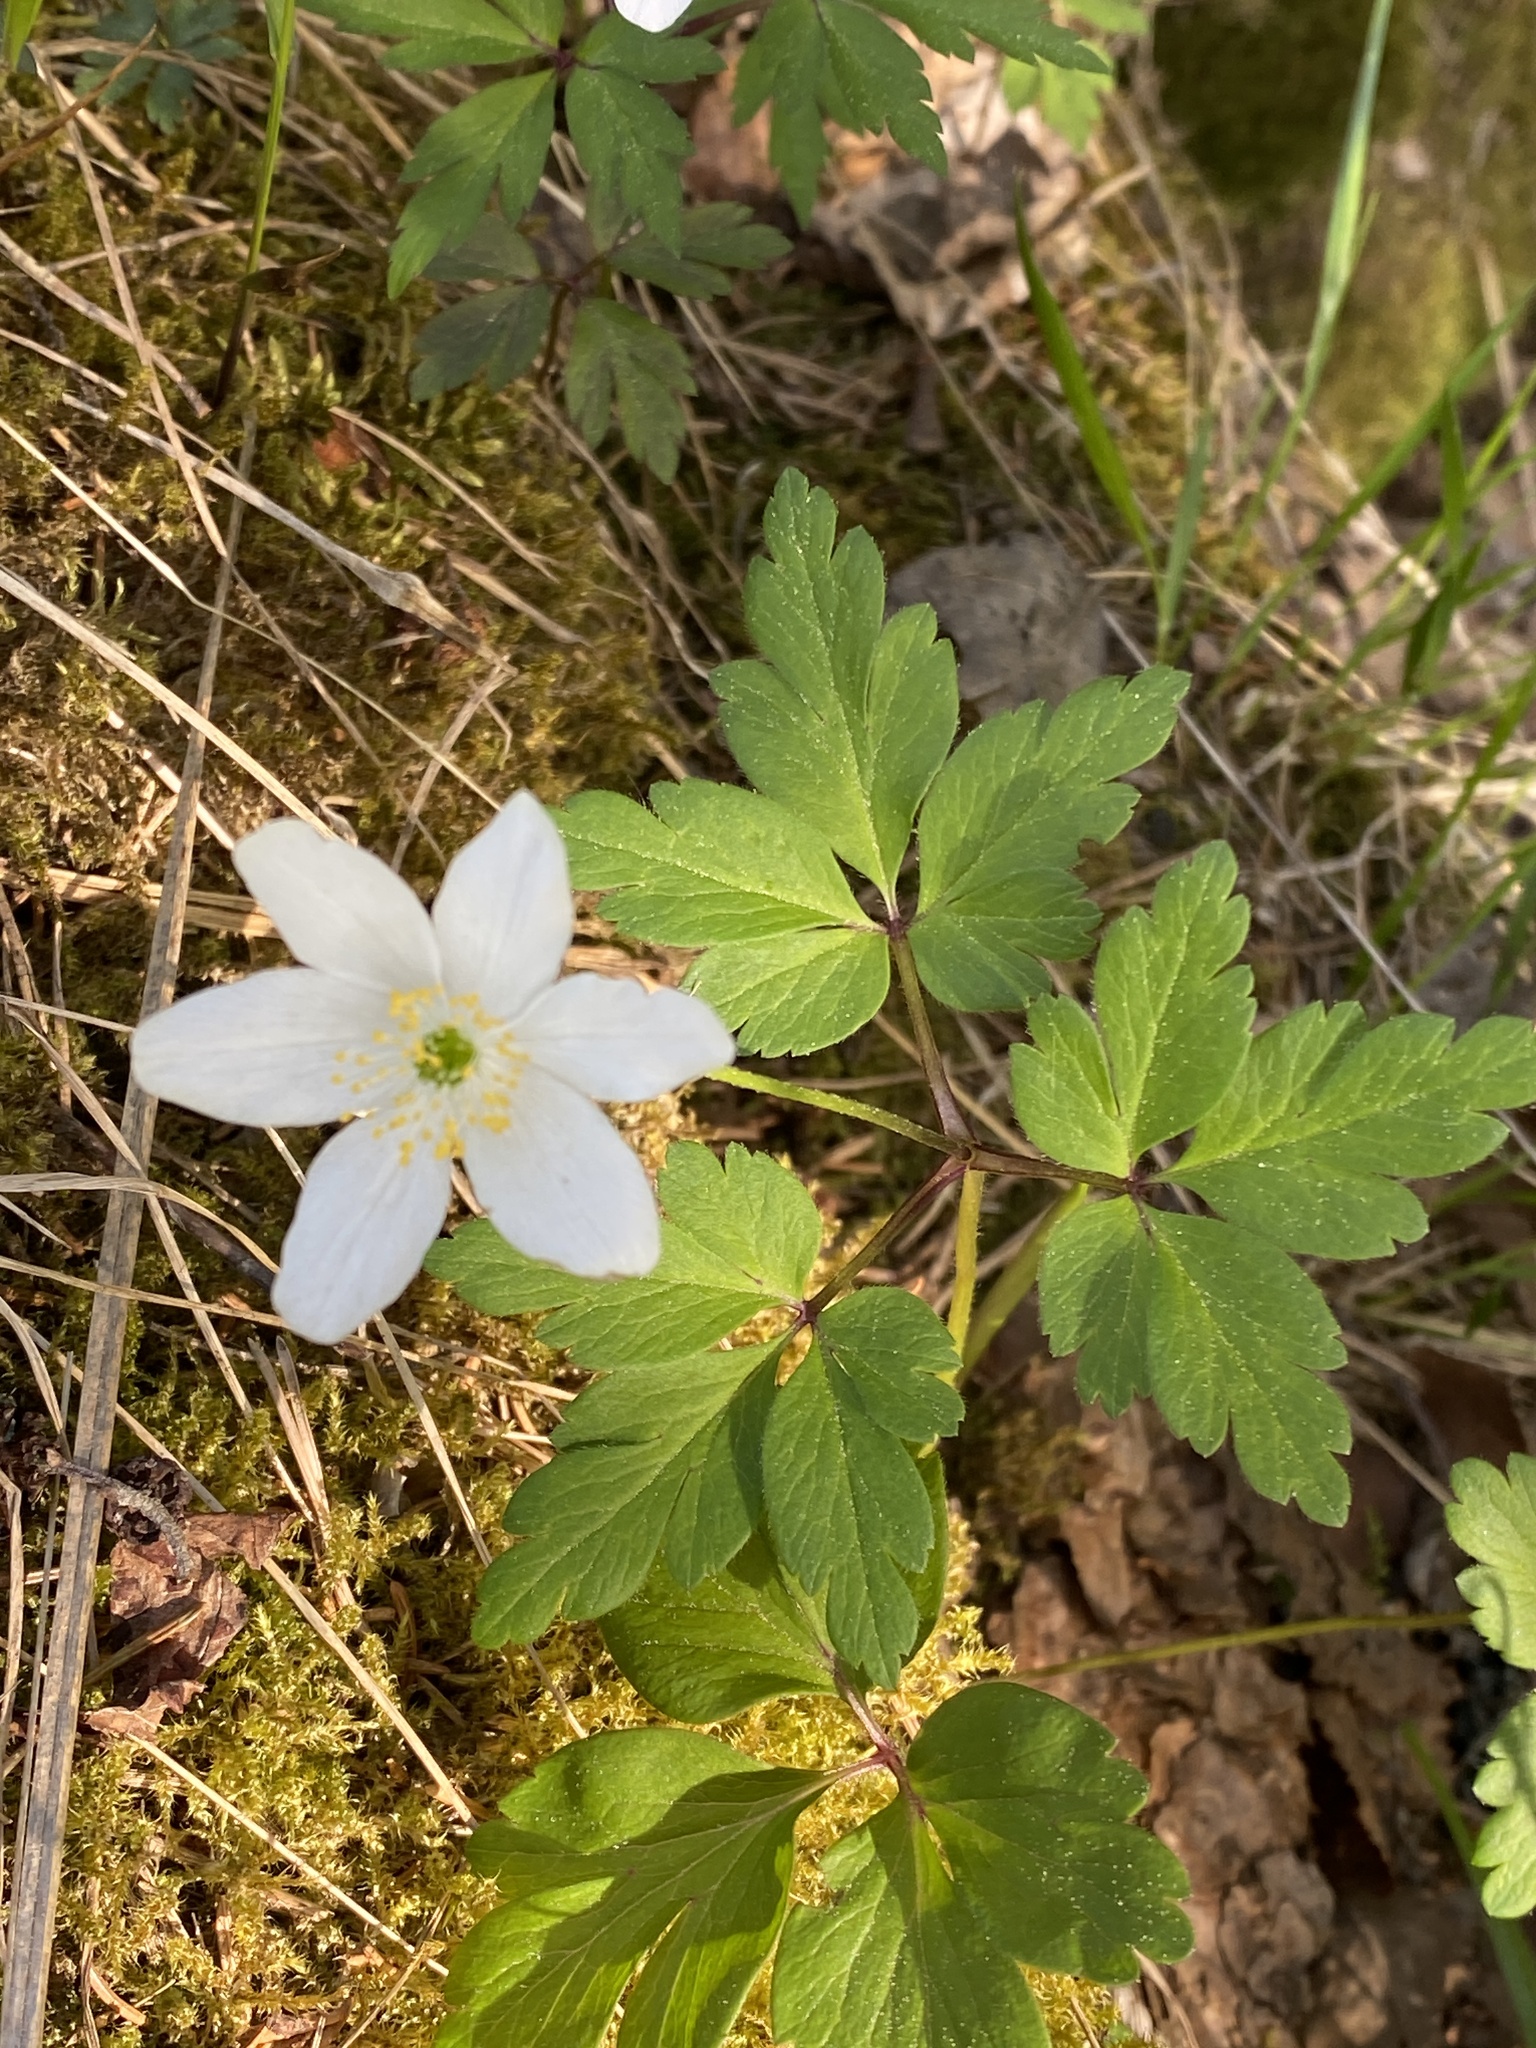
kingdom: Plantae
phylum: Tracheophyta
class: Magnoliopsida
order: Ranunculales
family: Ranunculaceae
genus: Anemone
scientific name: Anemone nemorosa
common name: Wood anemone
